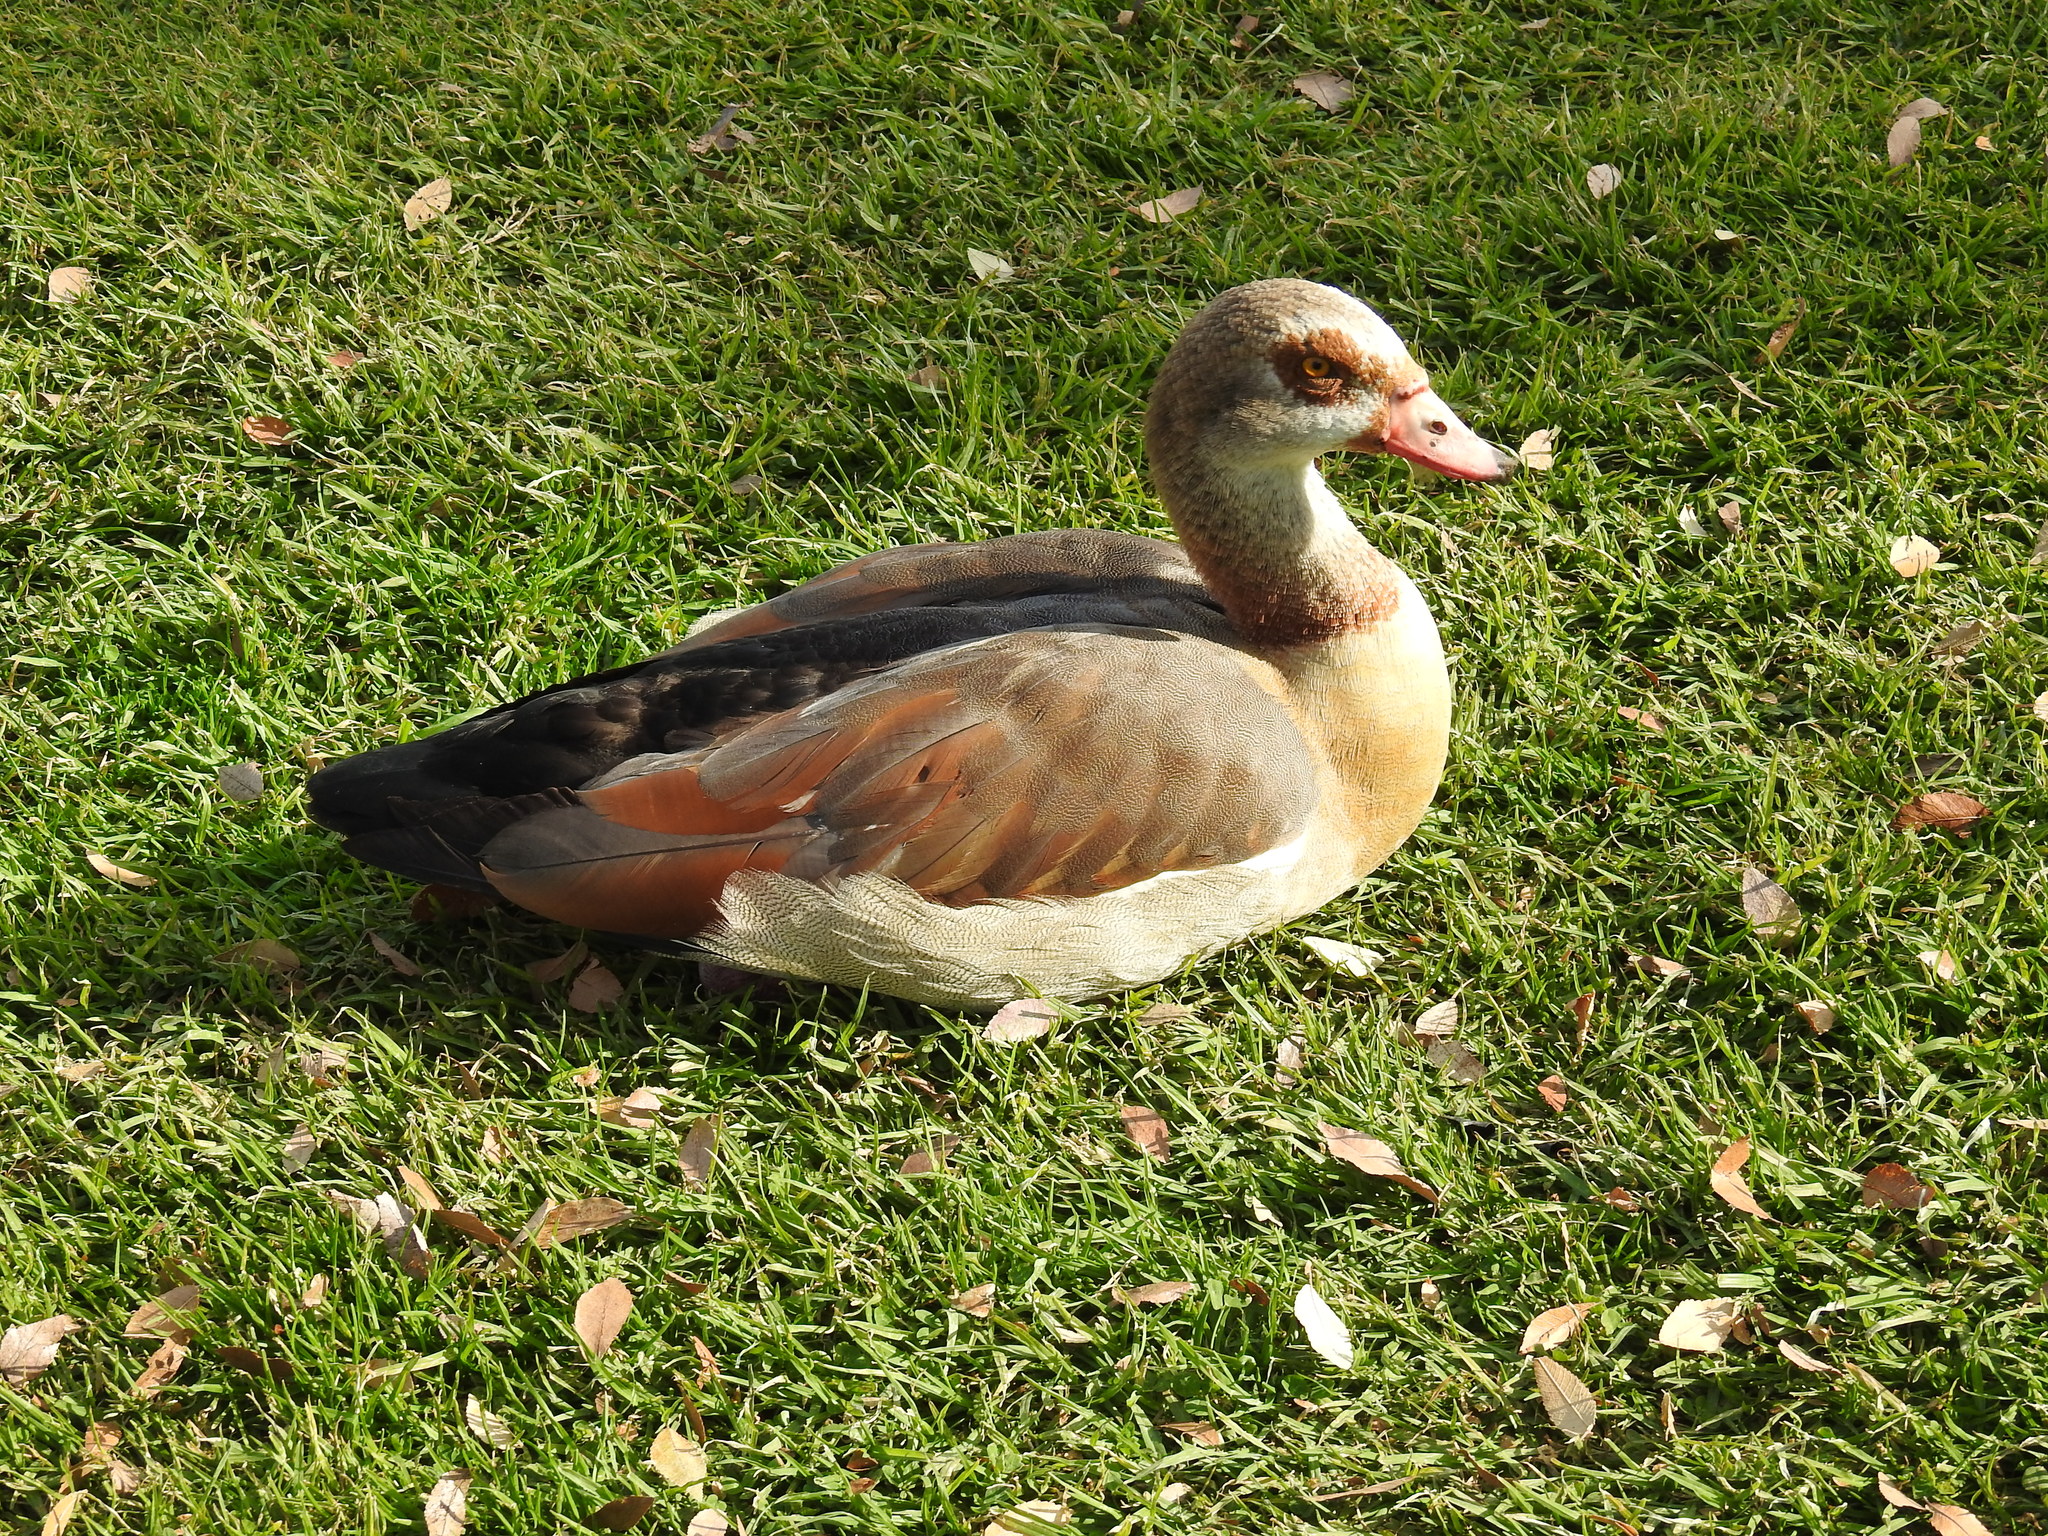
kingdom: Animalia
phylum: Chordata
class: Aves
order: Anseriformes
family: Anatidae
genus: Alopochen
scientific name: Alopochen aegyptiaca
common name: Egyptian goose
